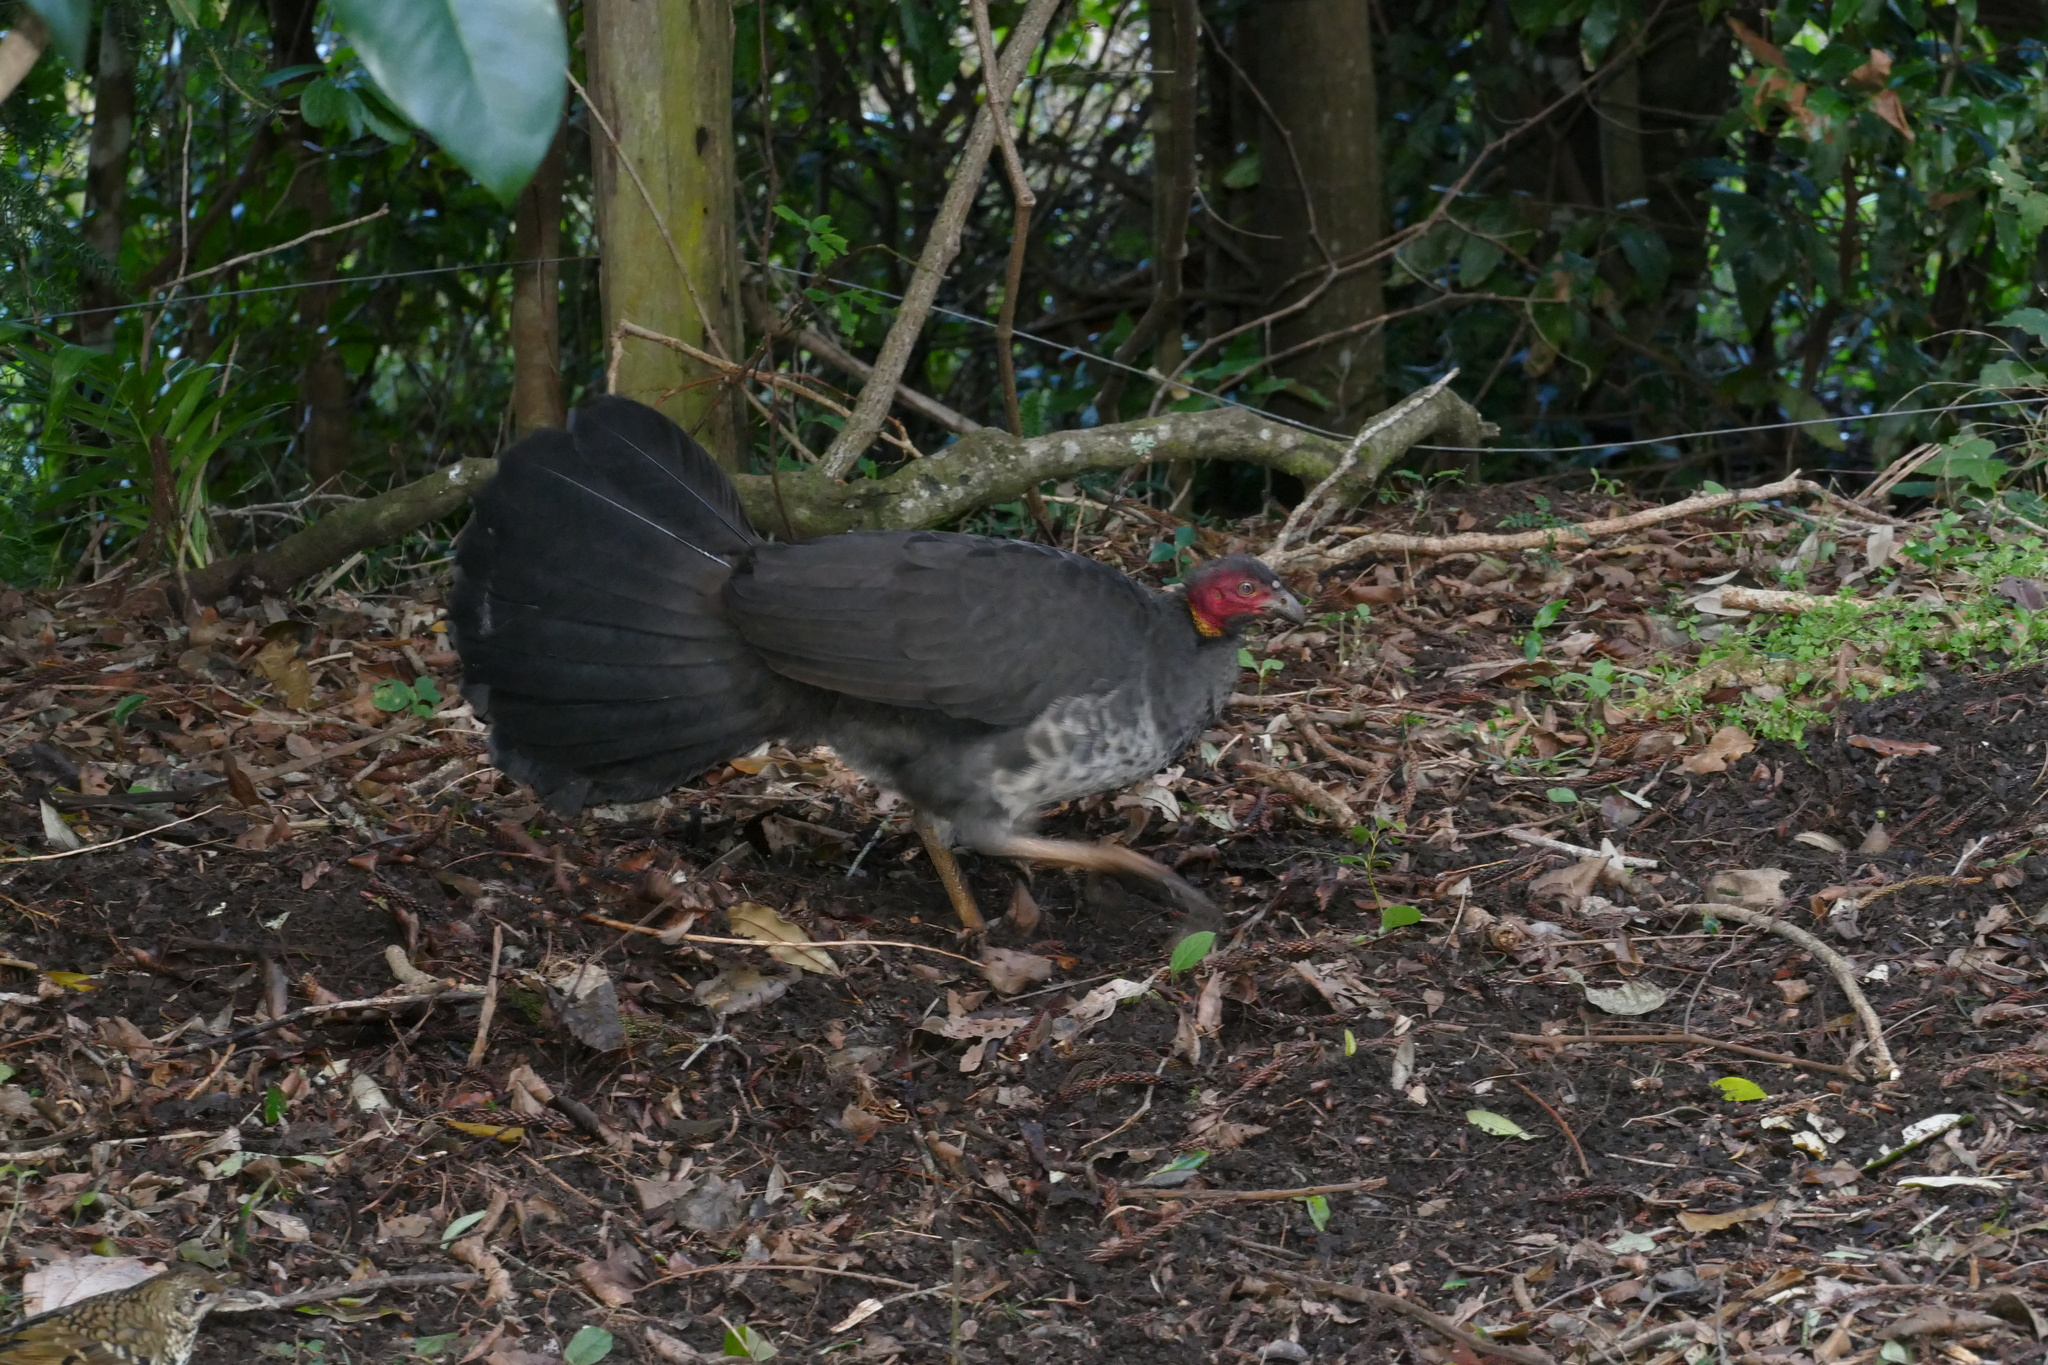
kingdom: Animalia
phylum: Chordata
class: Aves
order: Galliformes
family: Megapodiidae
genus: Alectura
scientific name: Alectura lathami
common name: Australian brushturkey
